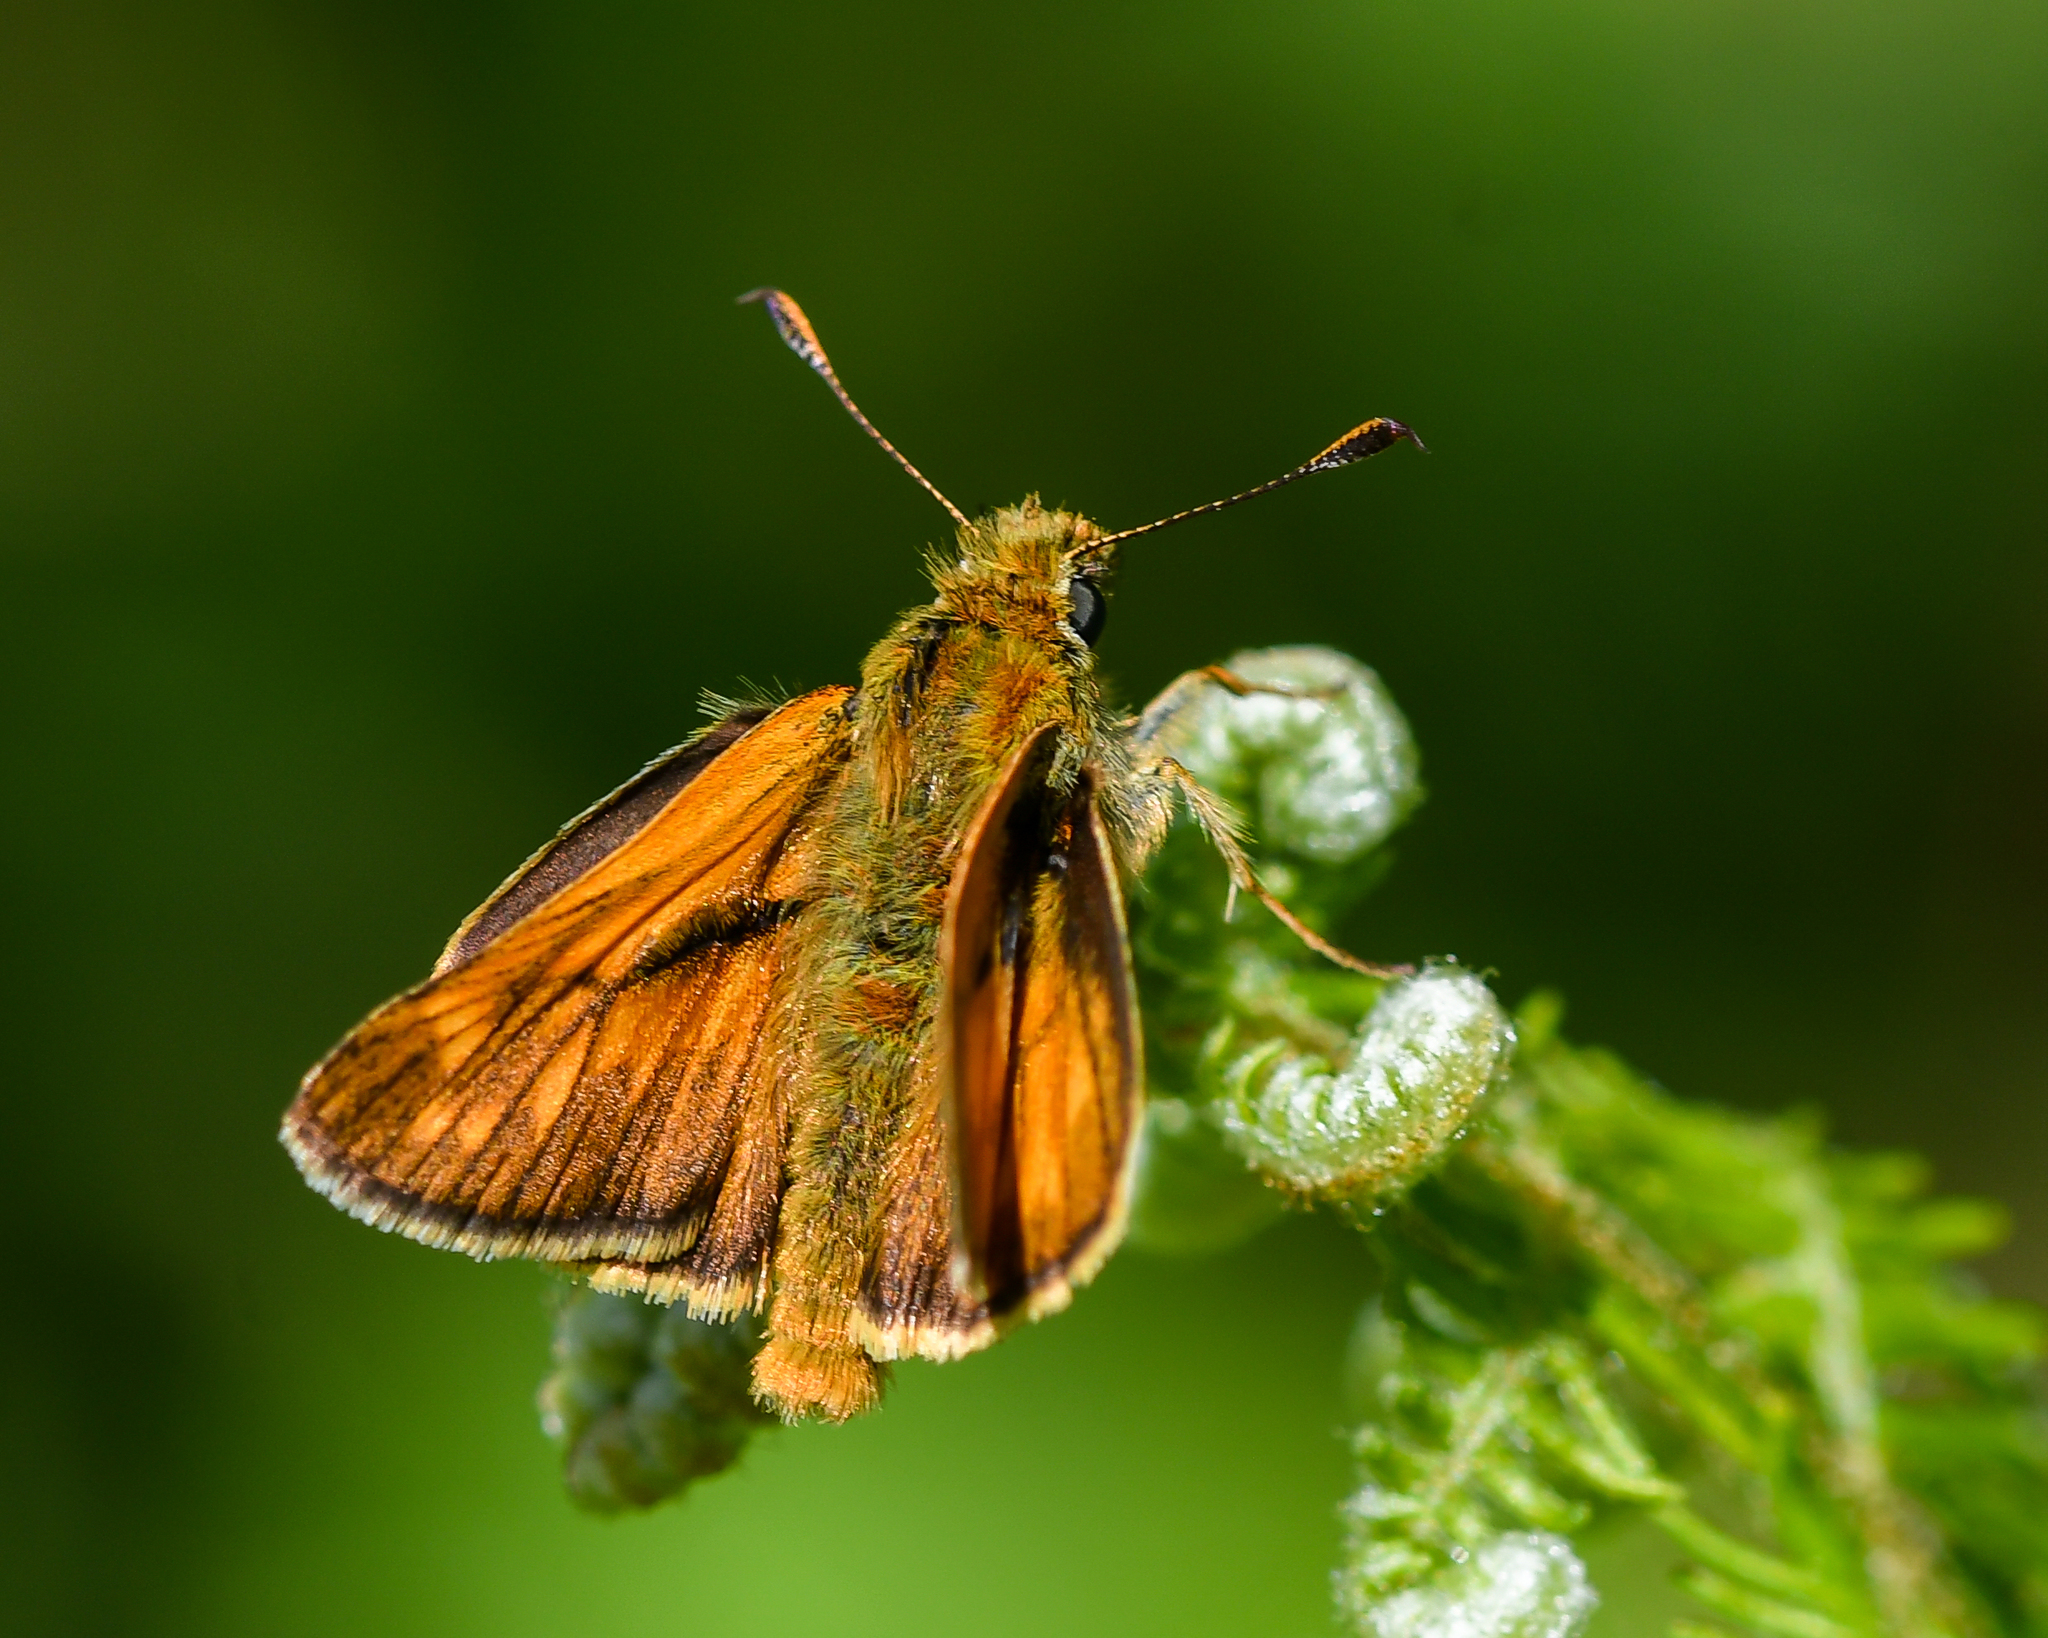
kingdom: Animalia
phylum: Arthropoda
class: Insecta
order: Lepidoptera
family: Hesperiidae
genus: Ochlodes
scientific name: Ochlodes venata
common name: Large skipper
